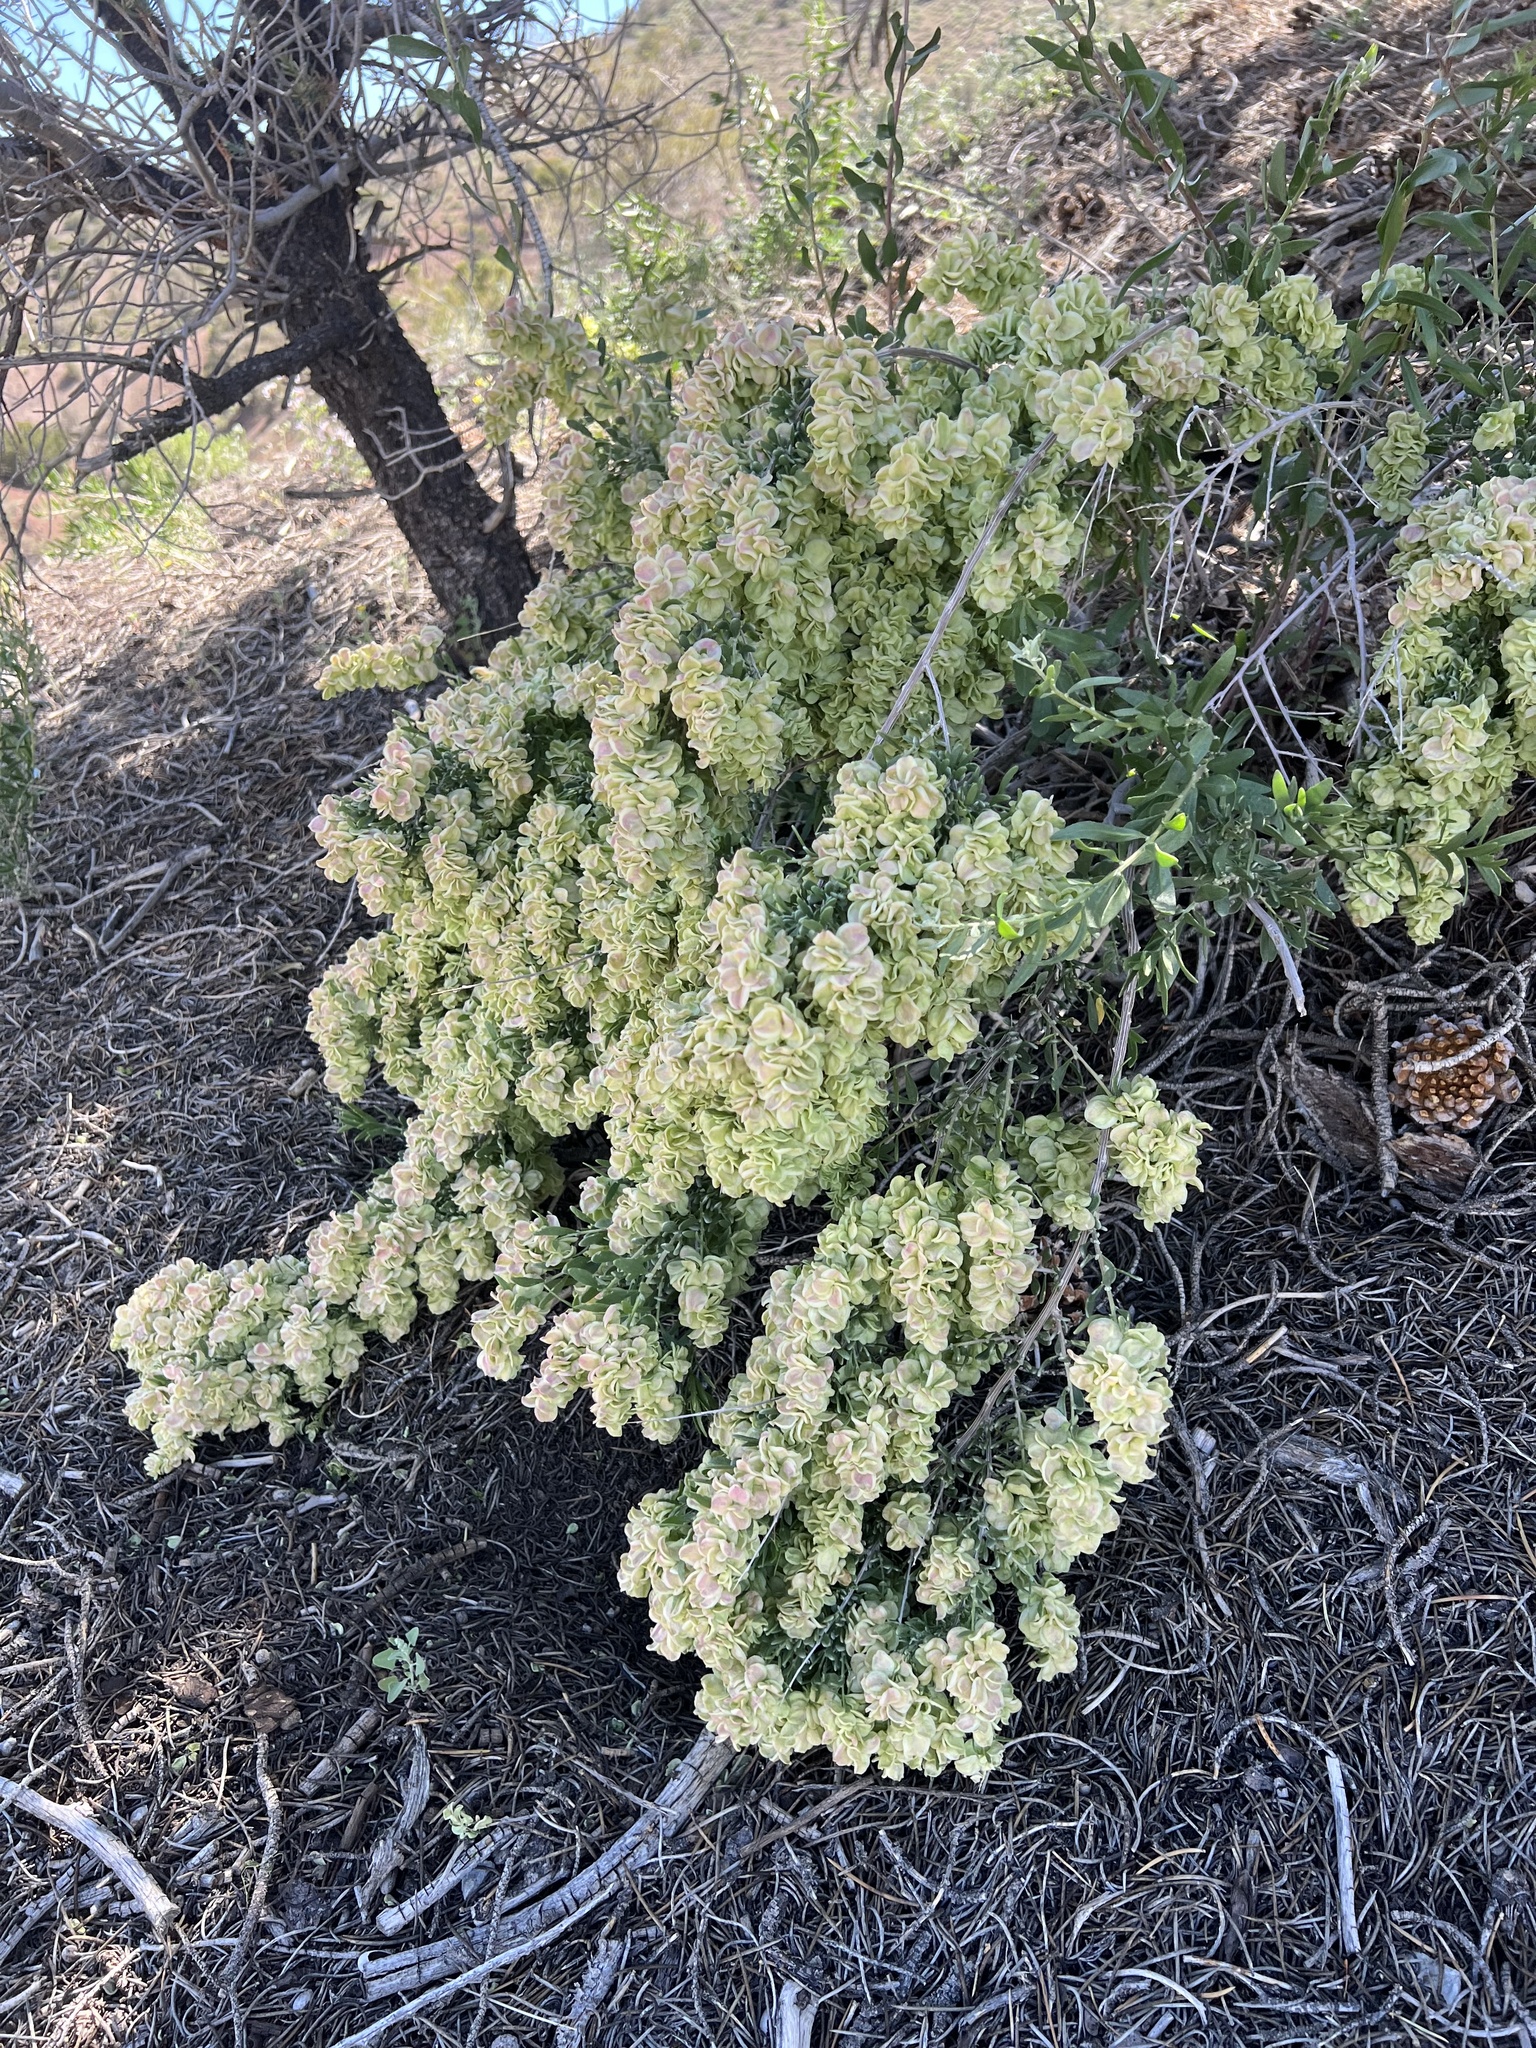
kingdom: Plantae
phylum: Tracheophyta
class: Magnoliopsida
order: Caryophyllales
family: Amaranthaceae
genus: Grayia
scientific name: Grayia spinosa
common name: Spiny hopsage
